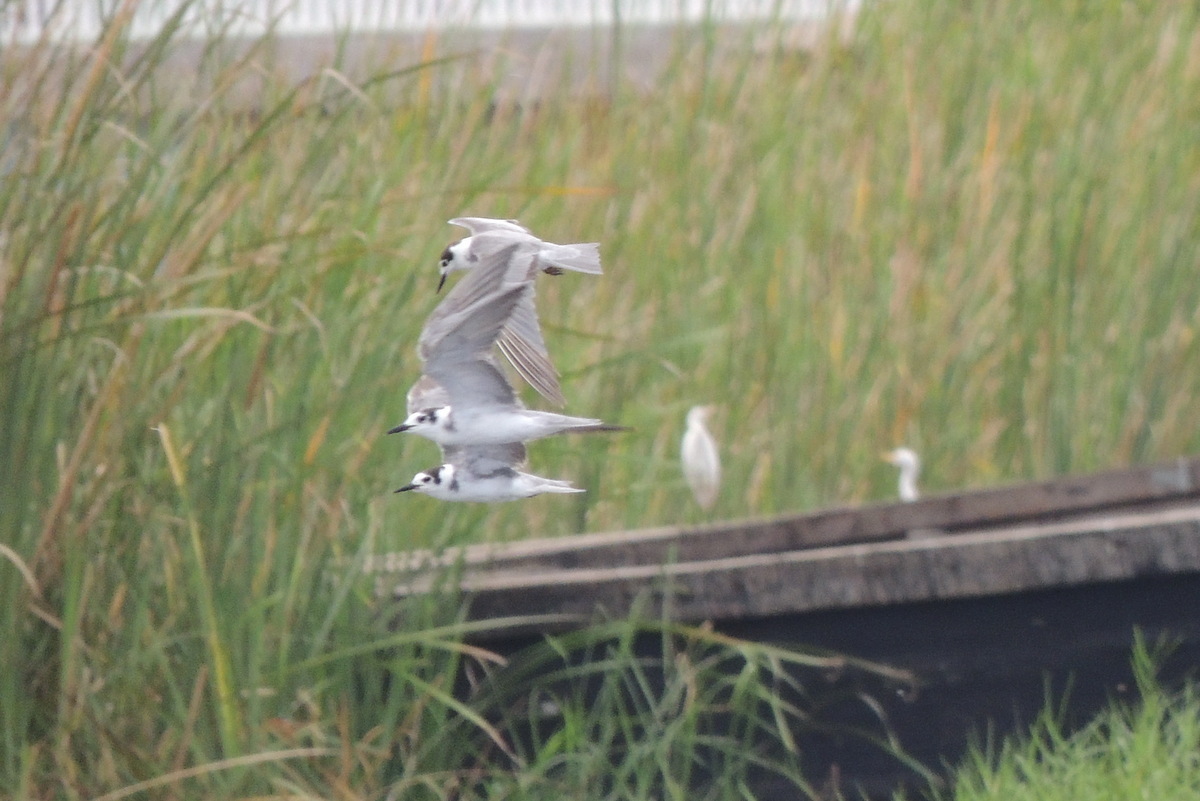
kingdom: Animalia
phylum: Chordata
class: Aves
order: Charadriiformes
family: Laridae
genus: Chlidonias
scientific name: Chlidonias niger
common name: Black tern
